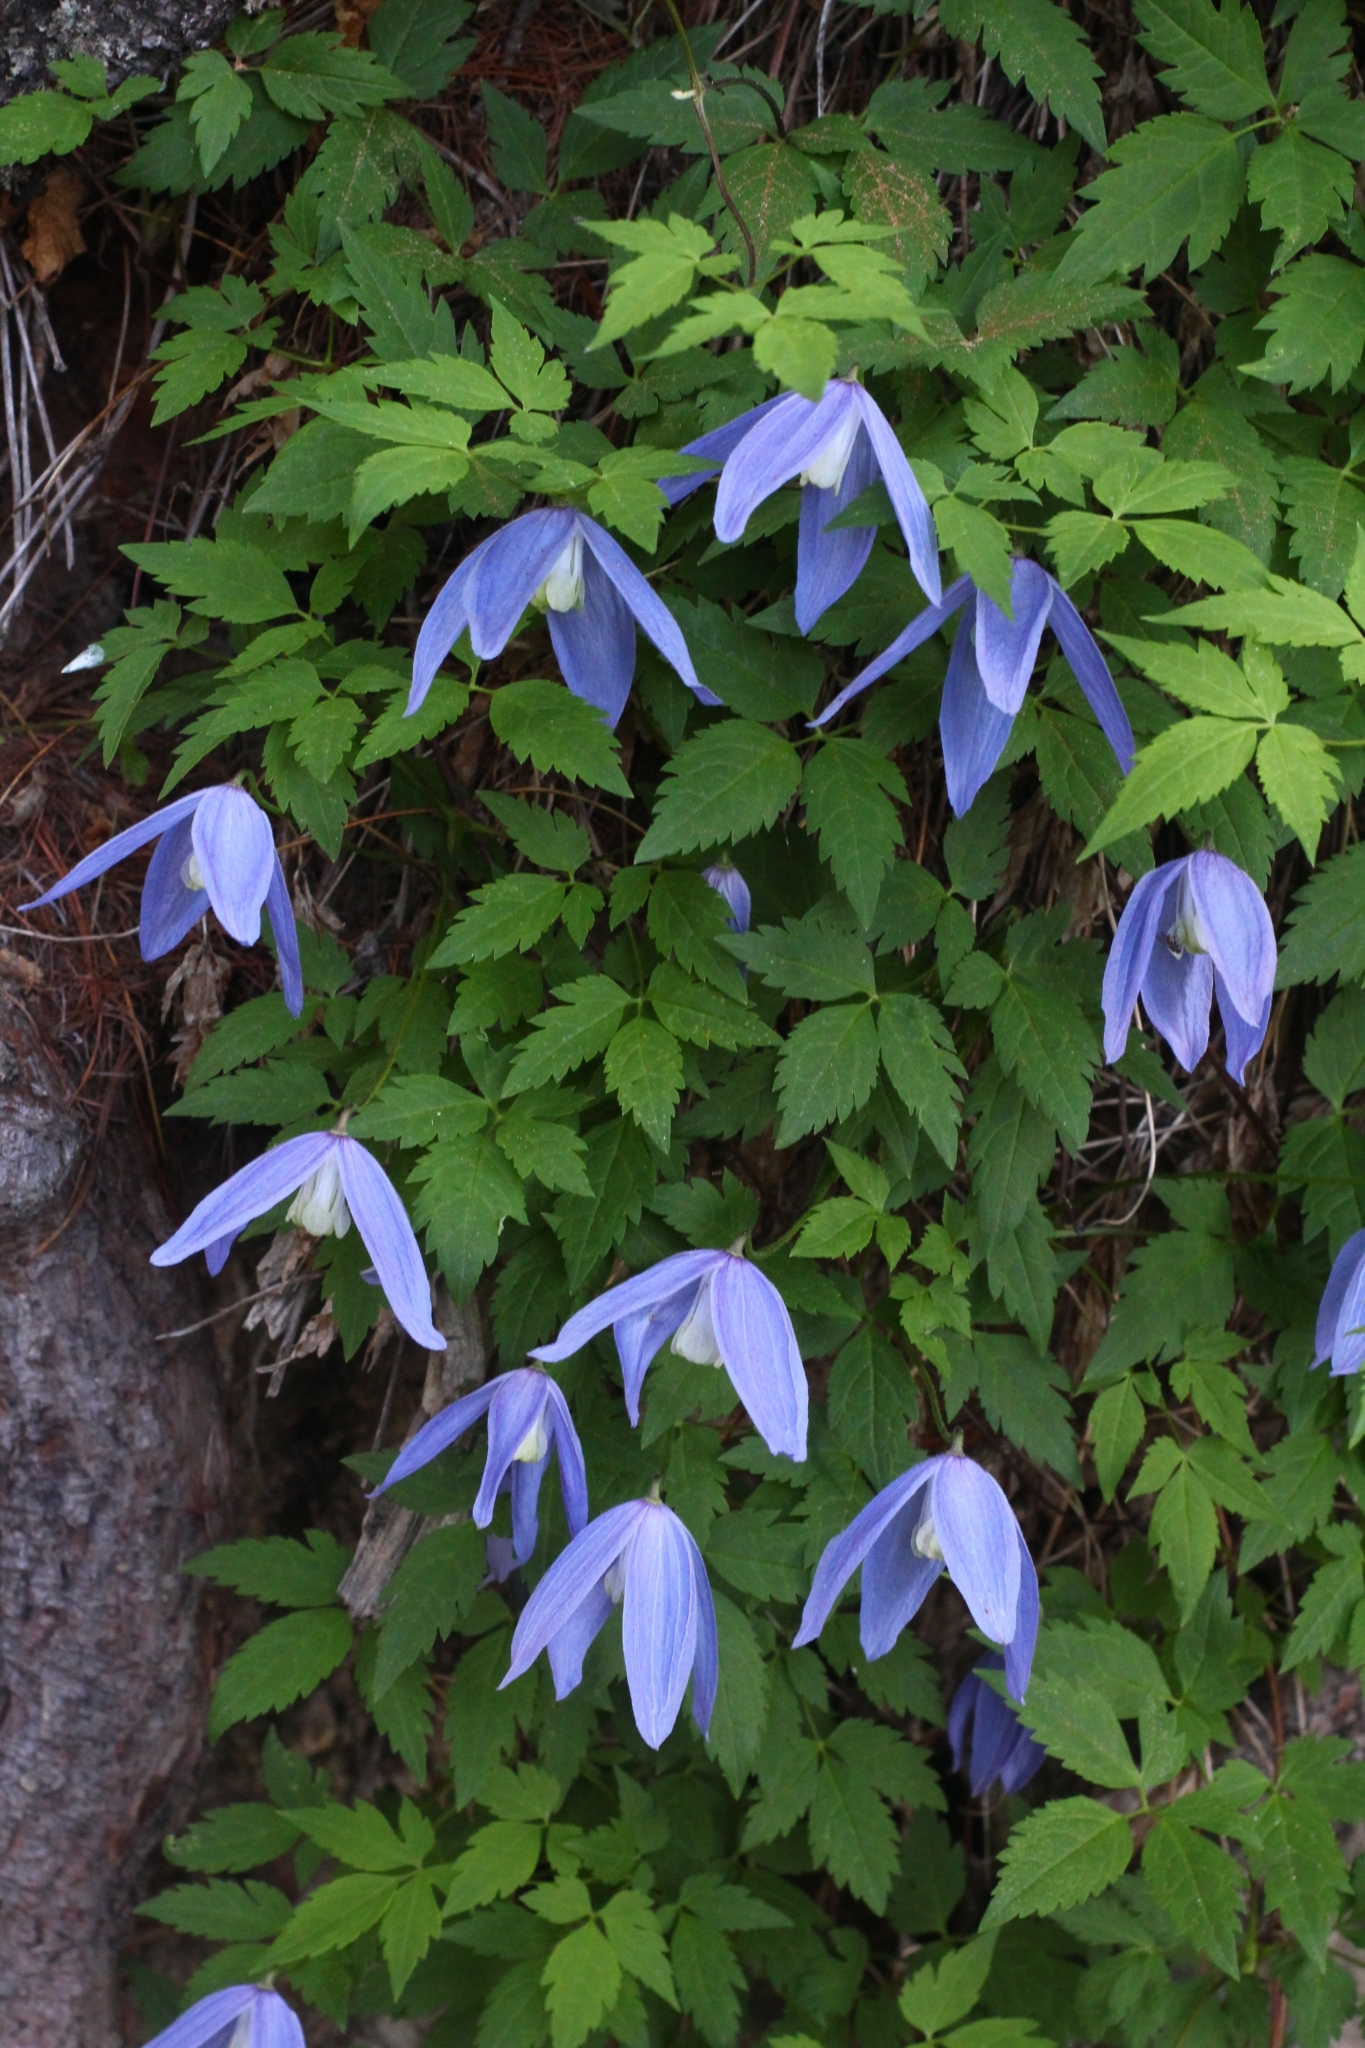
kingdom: Plantae
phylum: Tracheophyta
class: Magnoliopsida
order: Ranunculales
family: Ranunculaceae
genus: Clematis
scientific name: Clematis alpina
